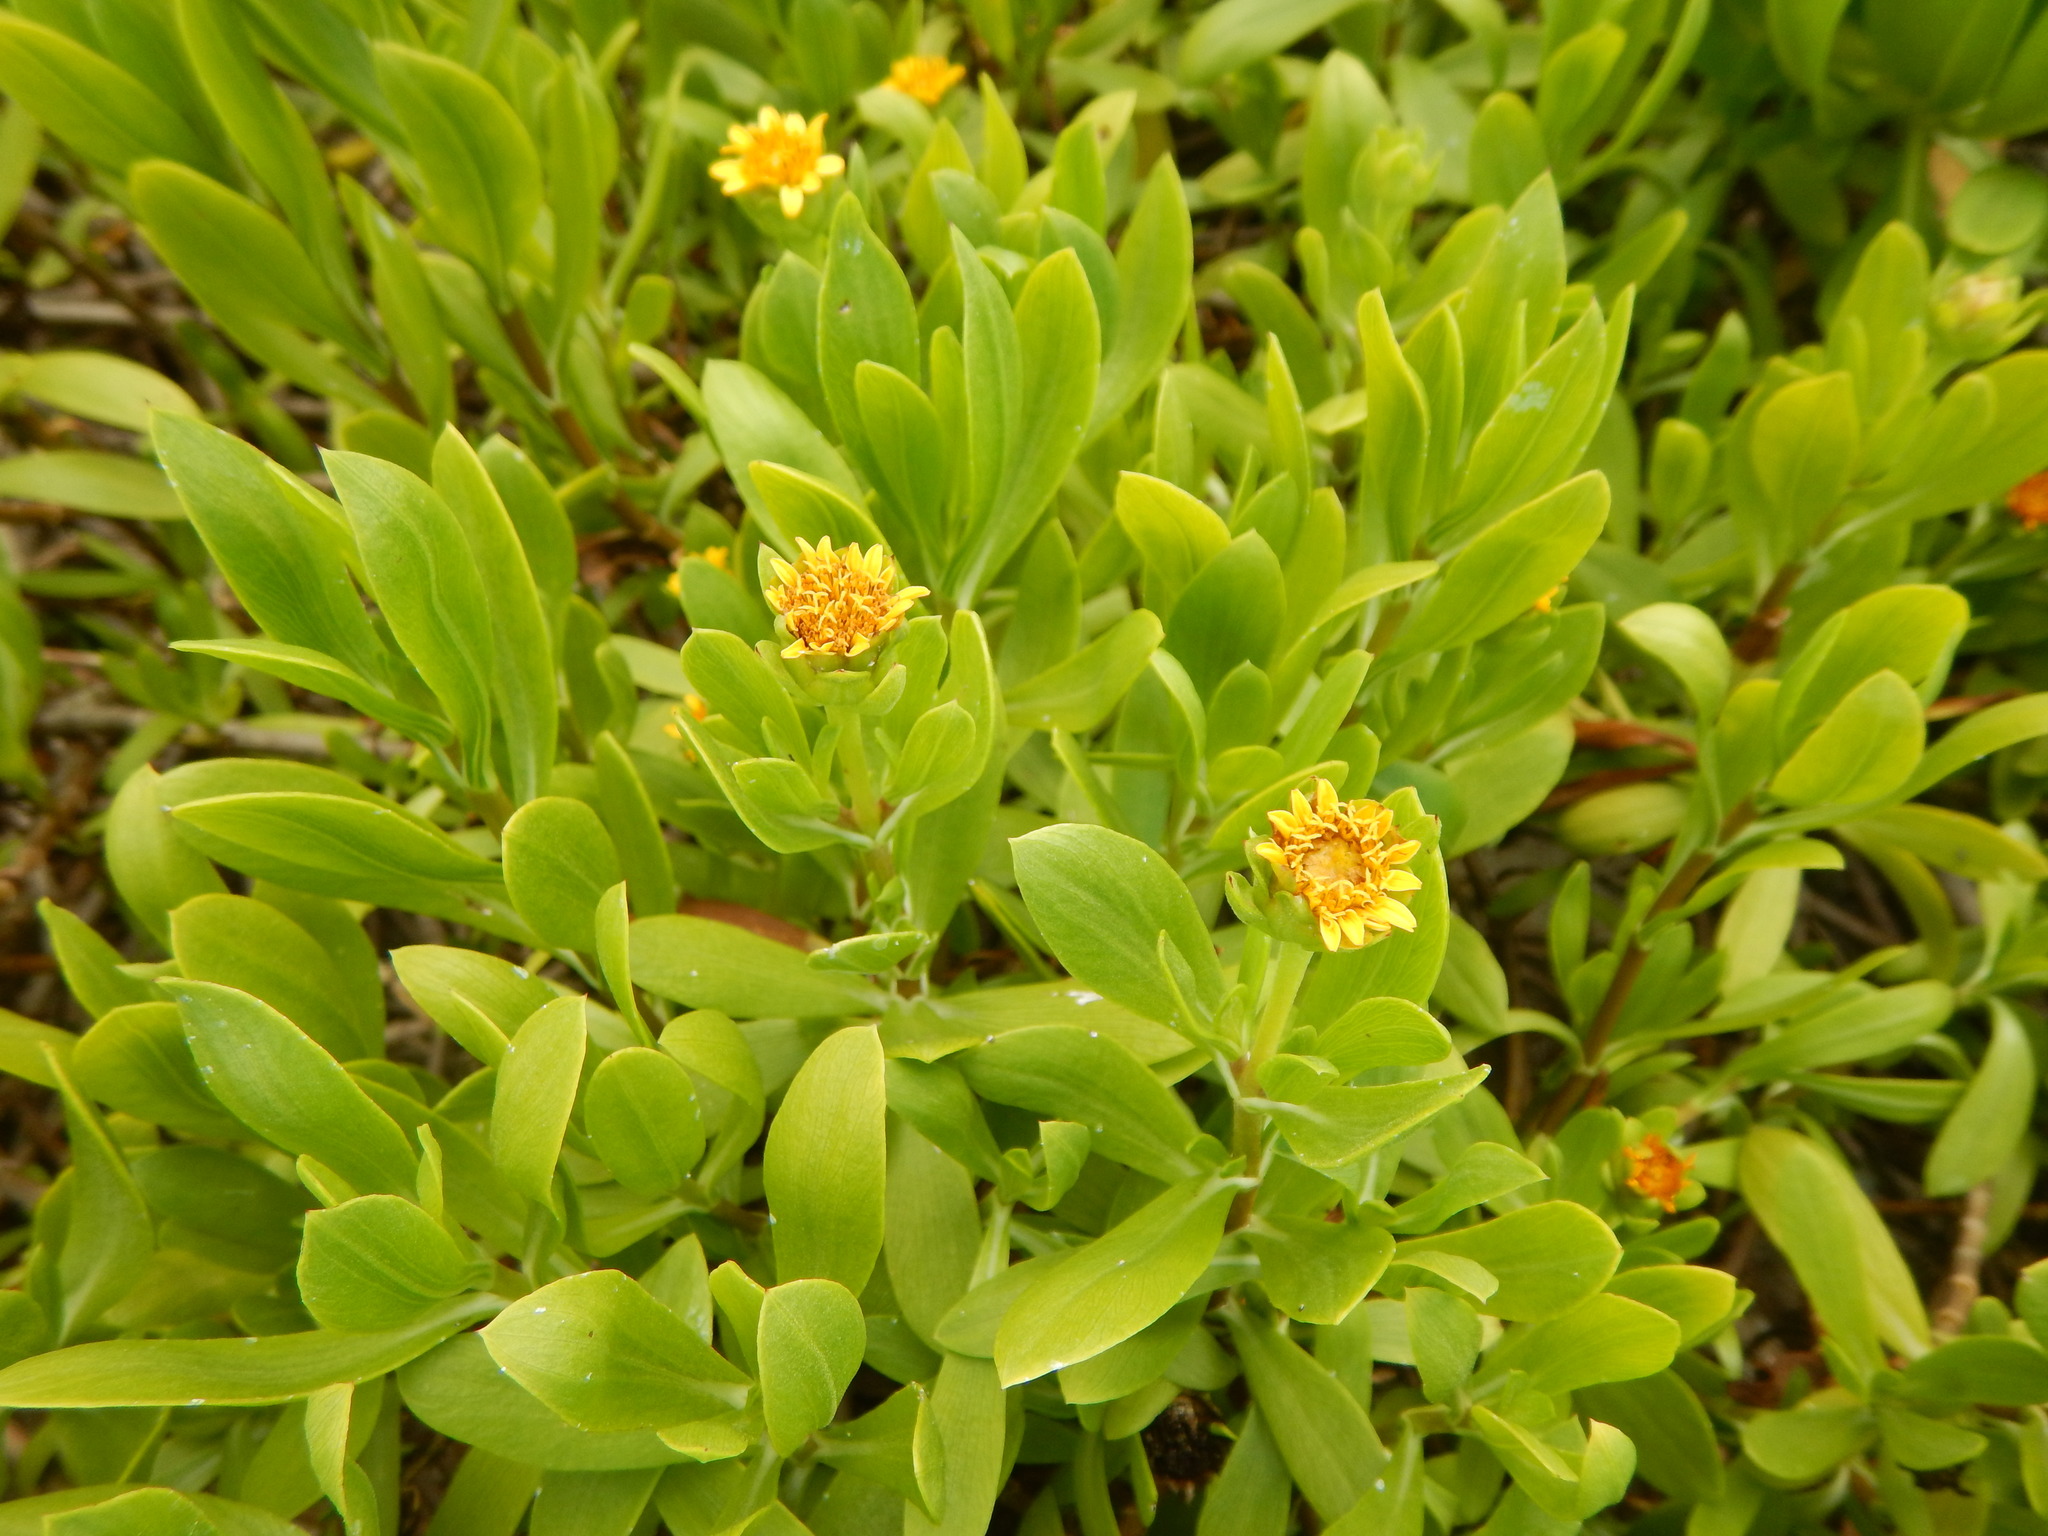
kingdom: Plantae
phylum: Tracheophyta
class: Magnoliopsida
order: Asterales
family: Asteraceae
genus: Borrichia
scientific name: Borrichia arborescens
